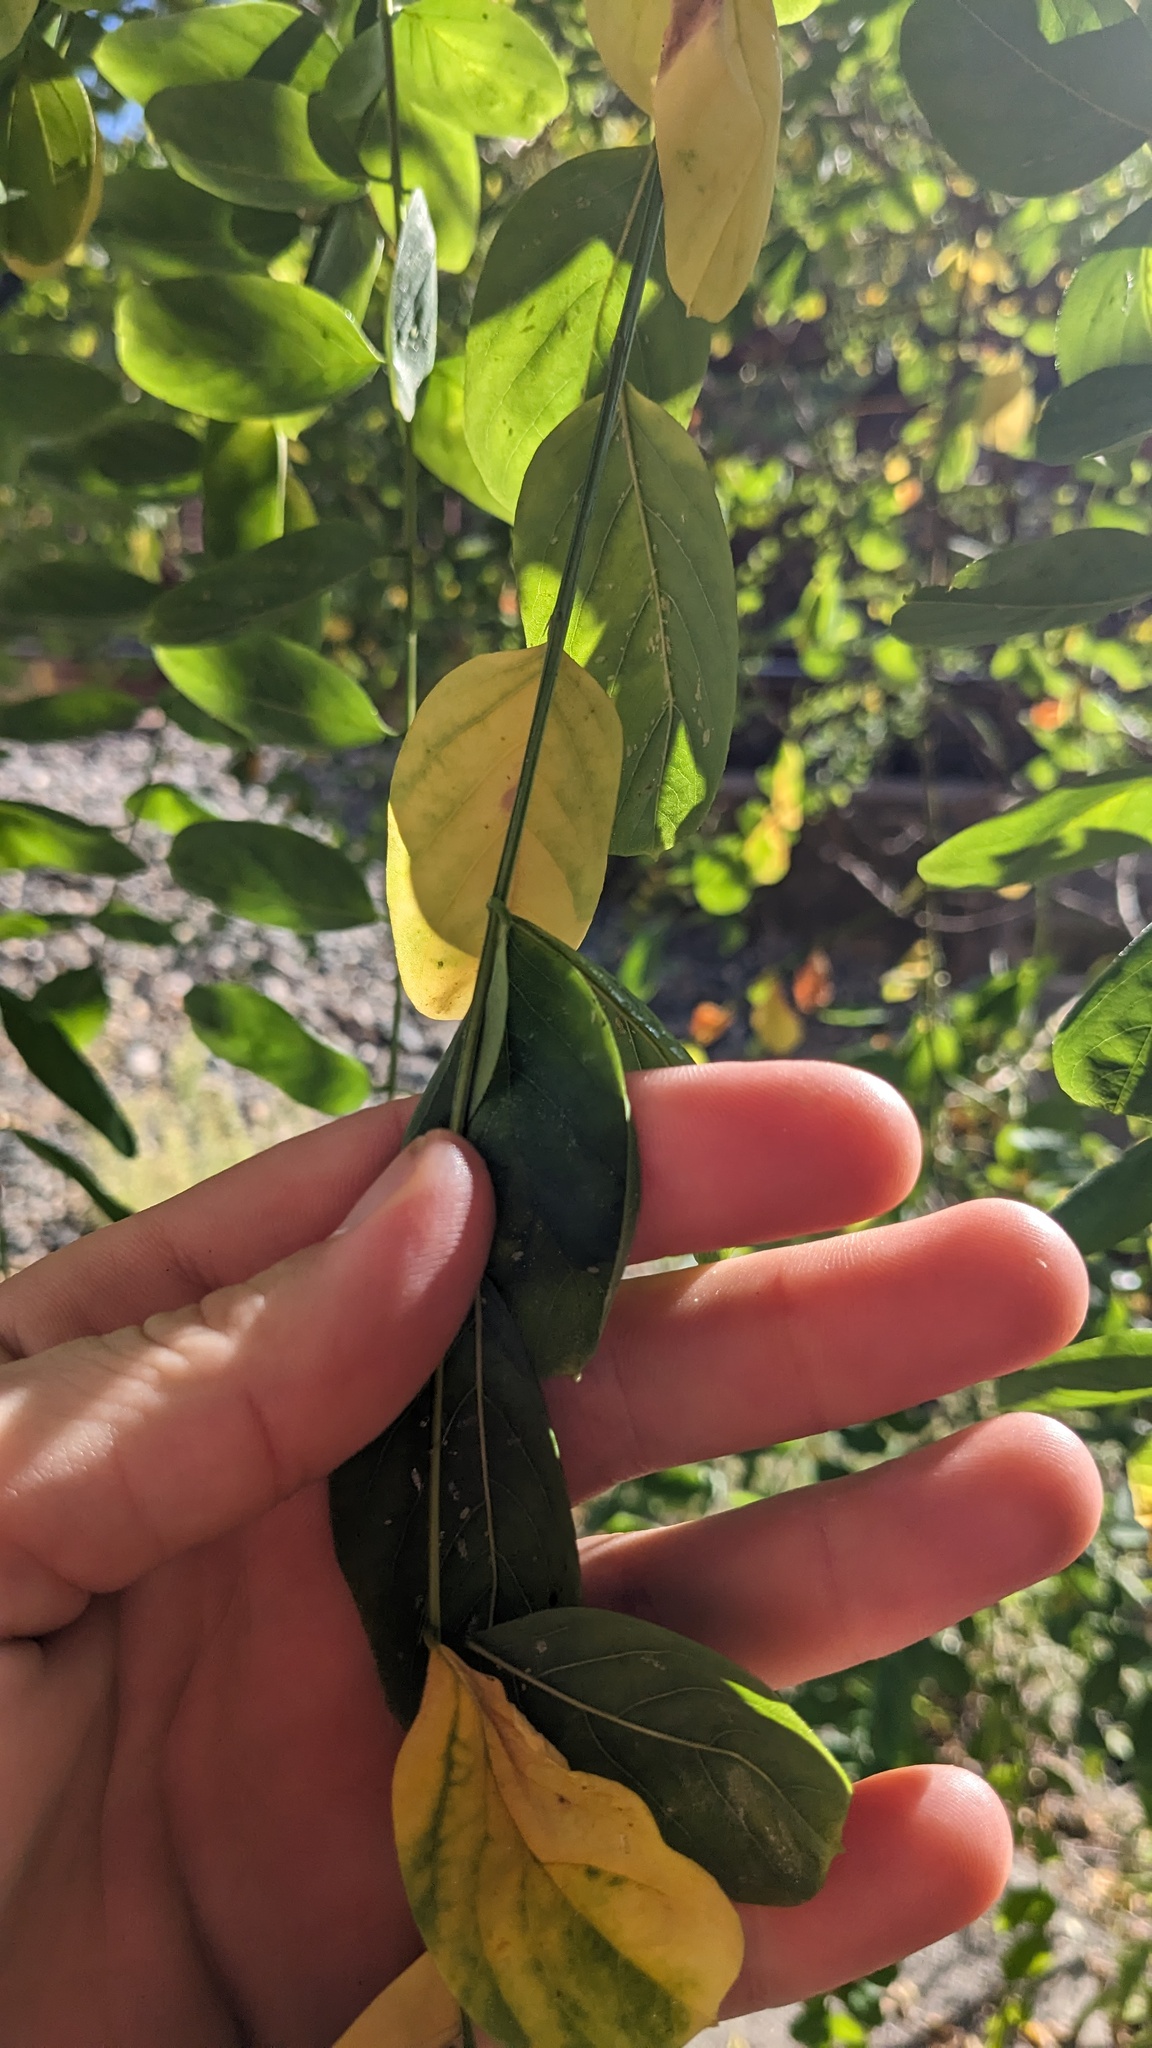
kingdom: Plantae
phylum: Tracheophyta
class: Magnoliopsida
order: Fabales
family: Fabaceae
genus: Robinia
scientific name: Robinia pseudoacacia
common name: Black locust
